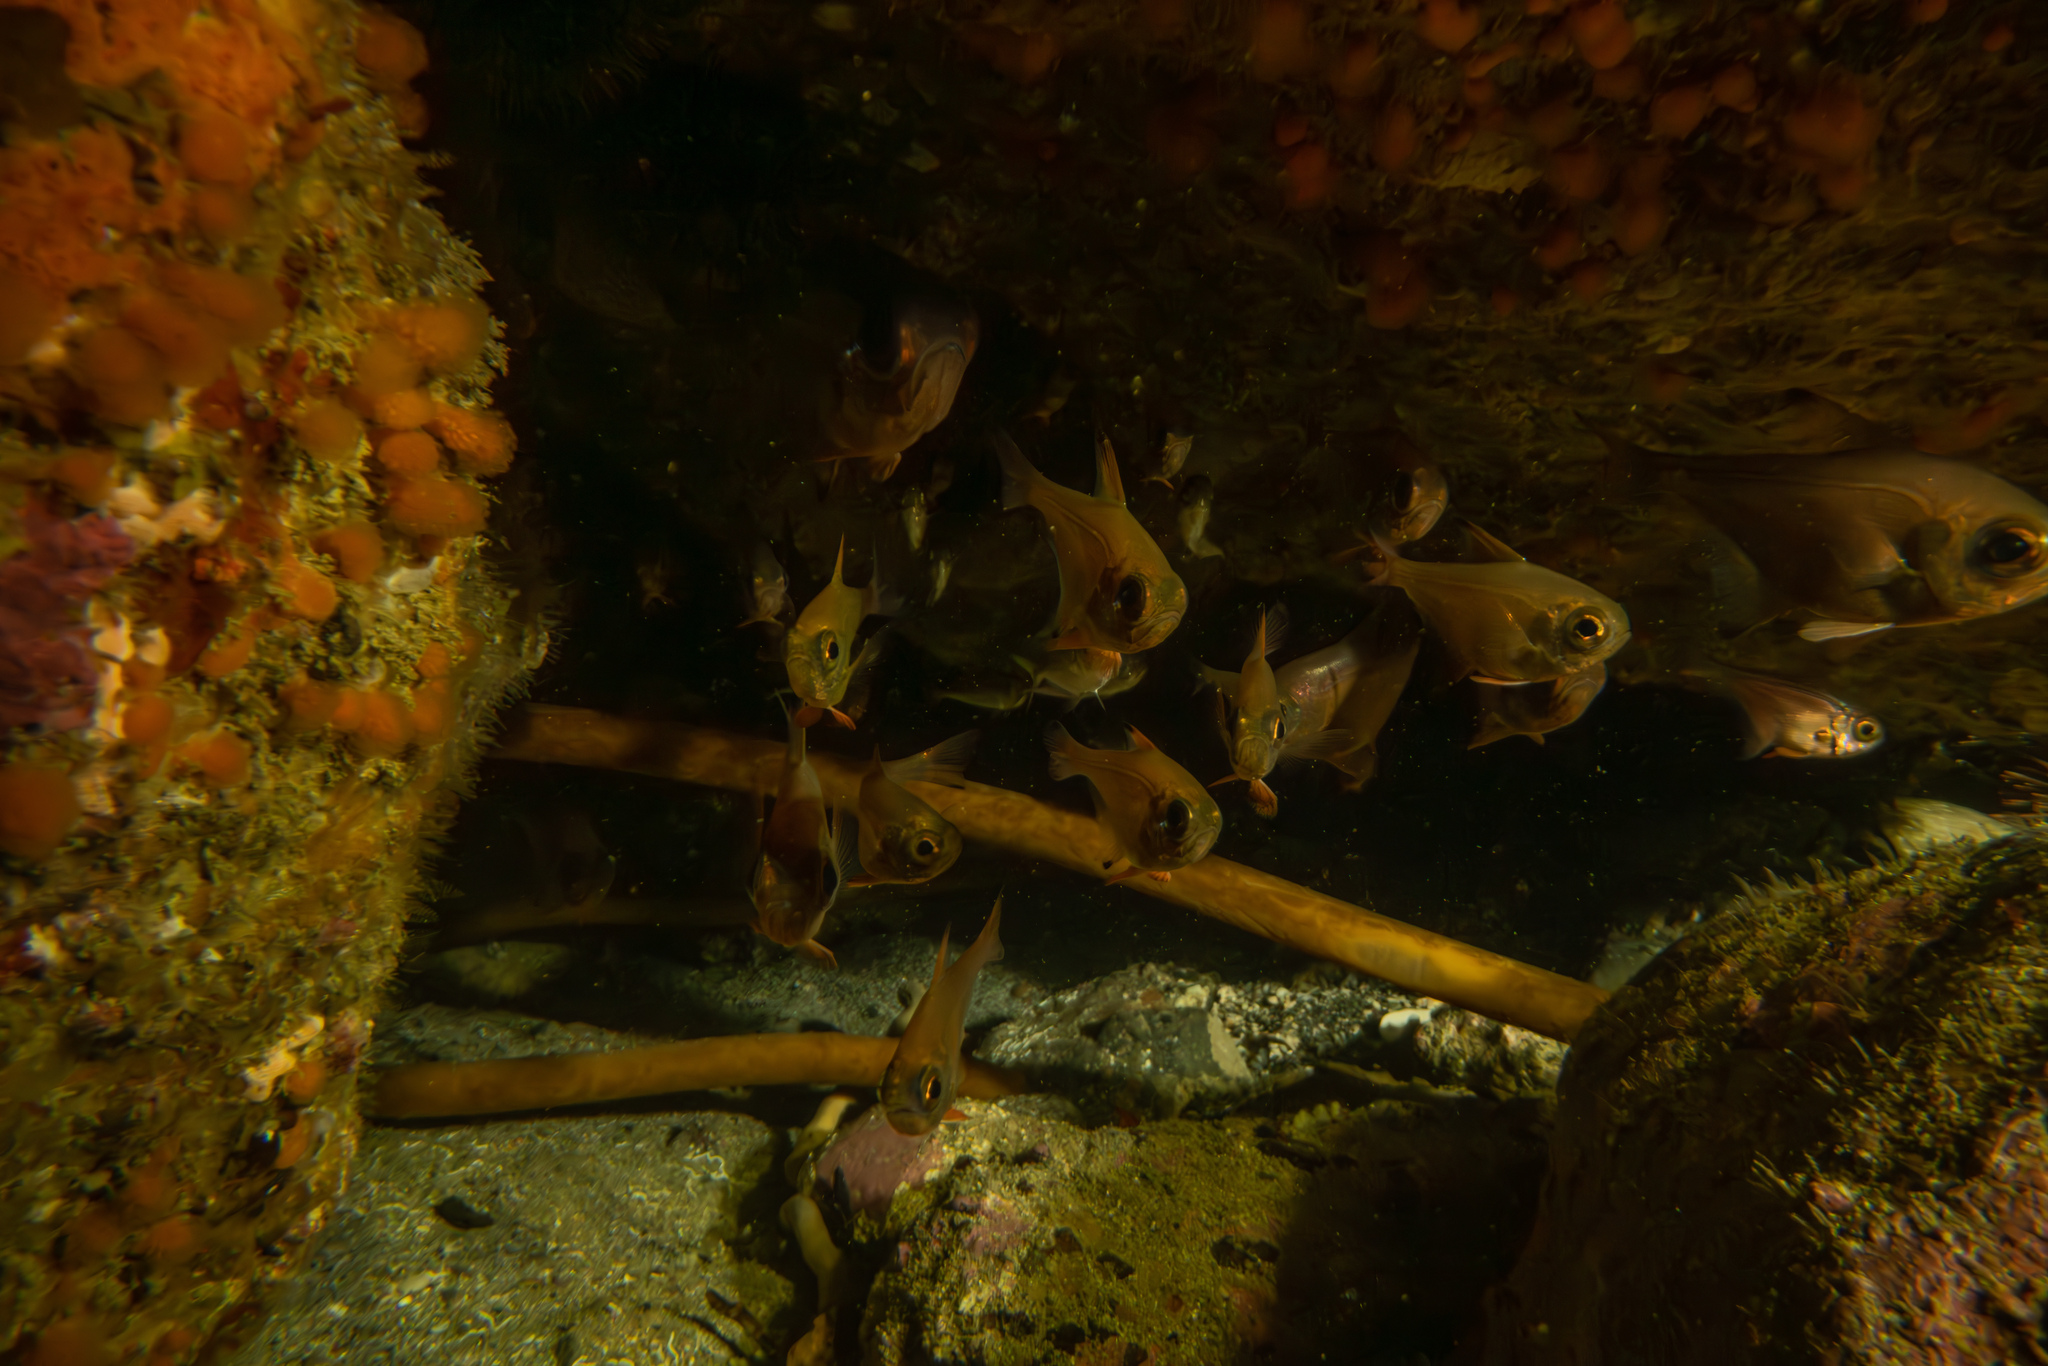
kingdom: Animalia
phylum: Chordata
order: Perciformes
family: Pempheridae
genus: Pempheris
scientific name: Pempheris adspersa
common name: Bigeye
